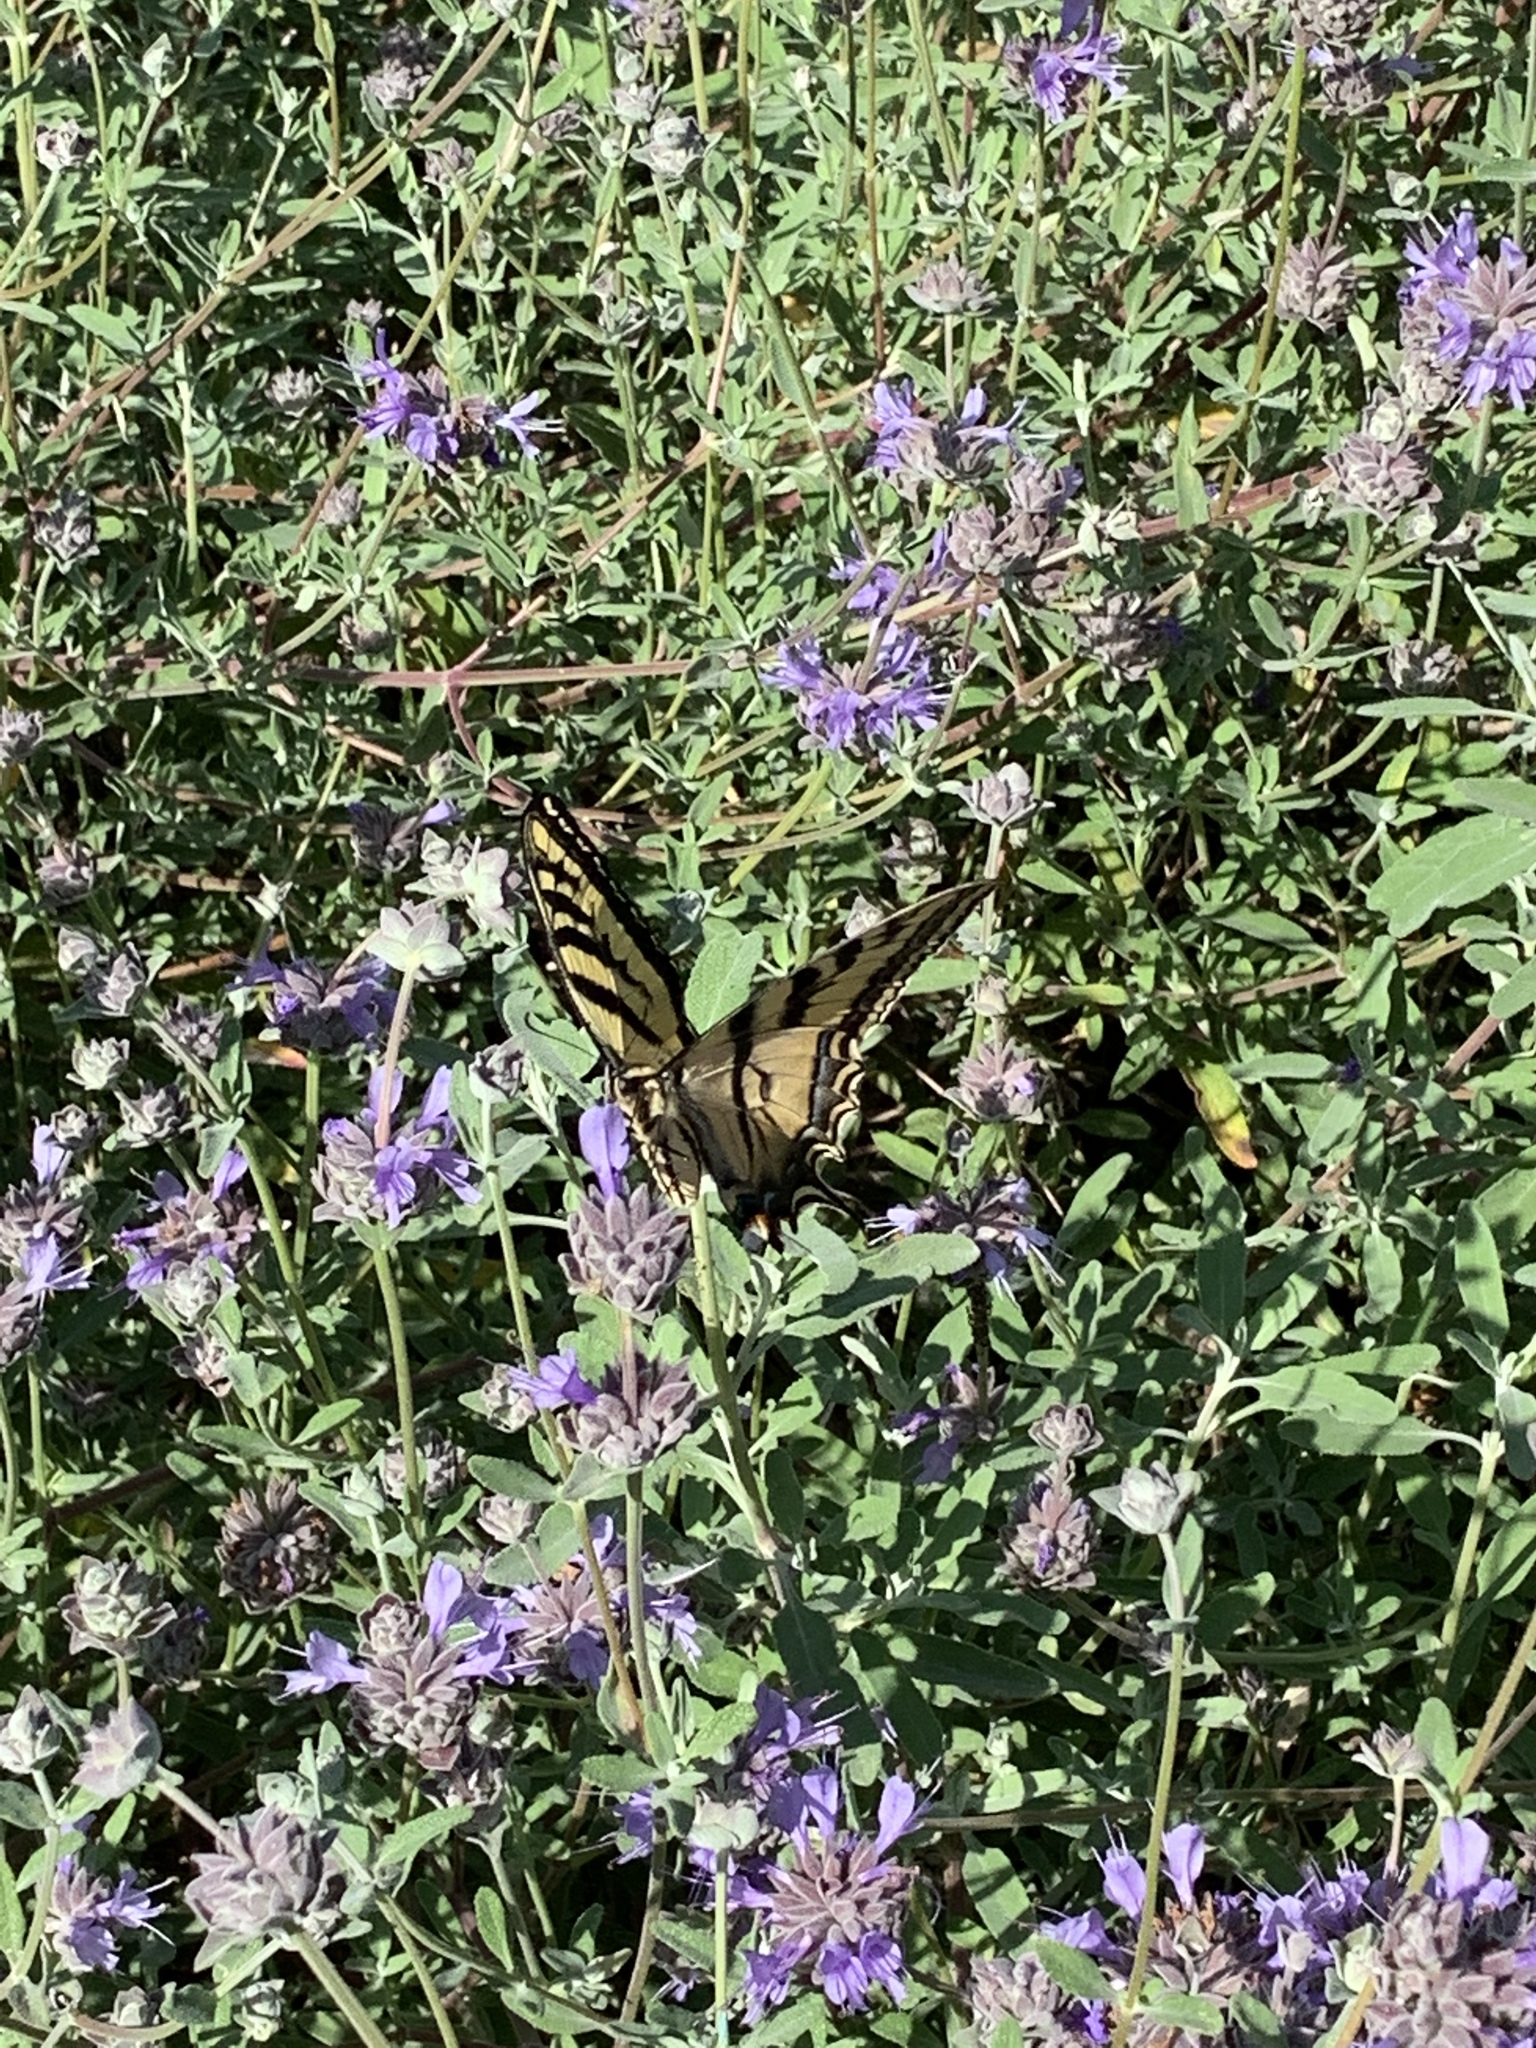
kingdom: Animalia
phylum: Arthropoda
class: Insecta
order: Lepidoptera
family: Papilionidae
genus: Papilio
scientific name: Papilio rutulus
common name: Western tiger swallowtail
